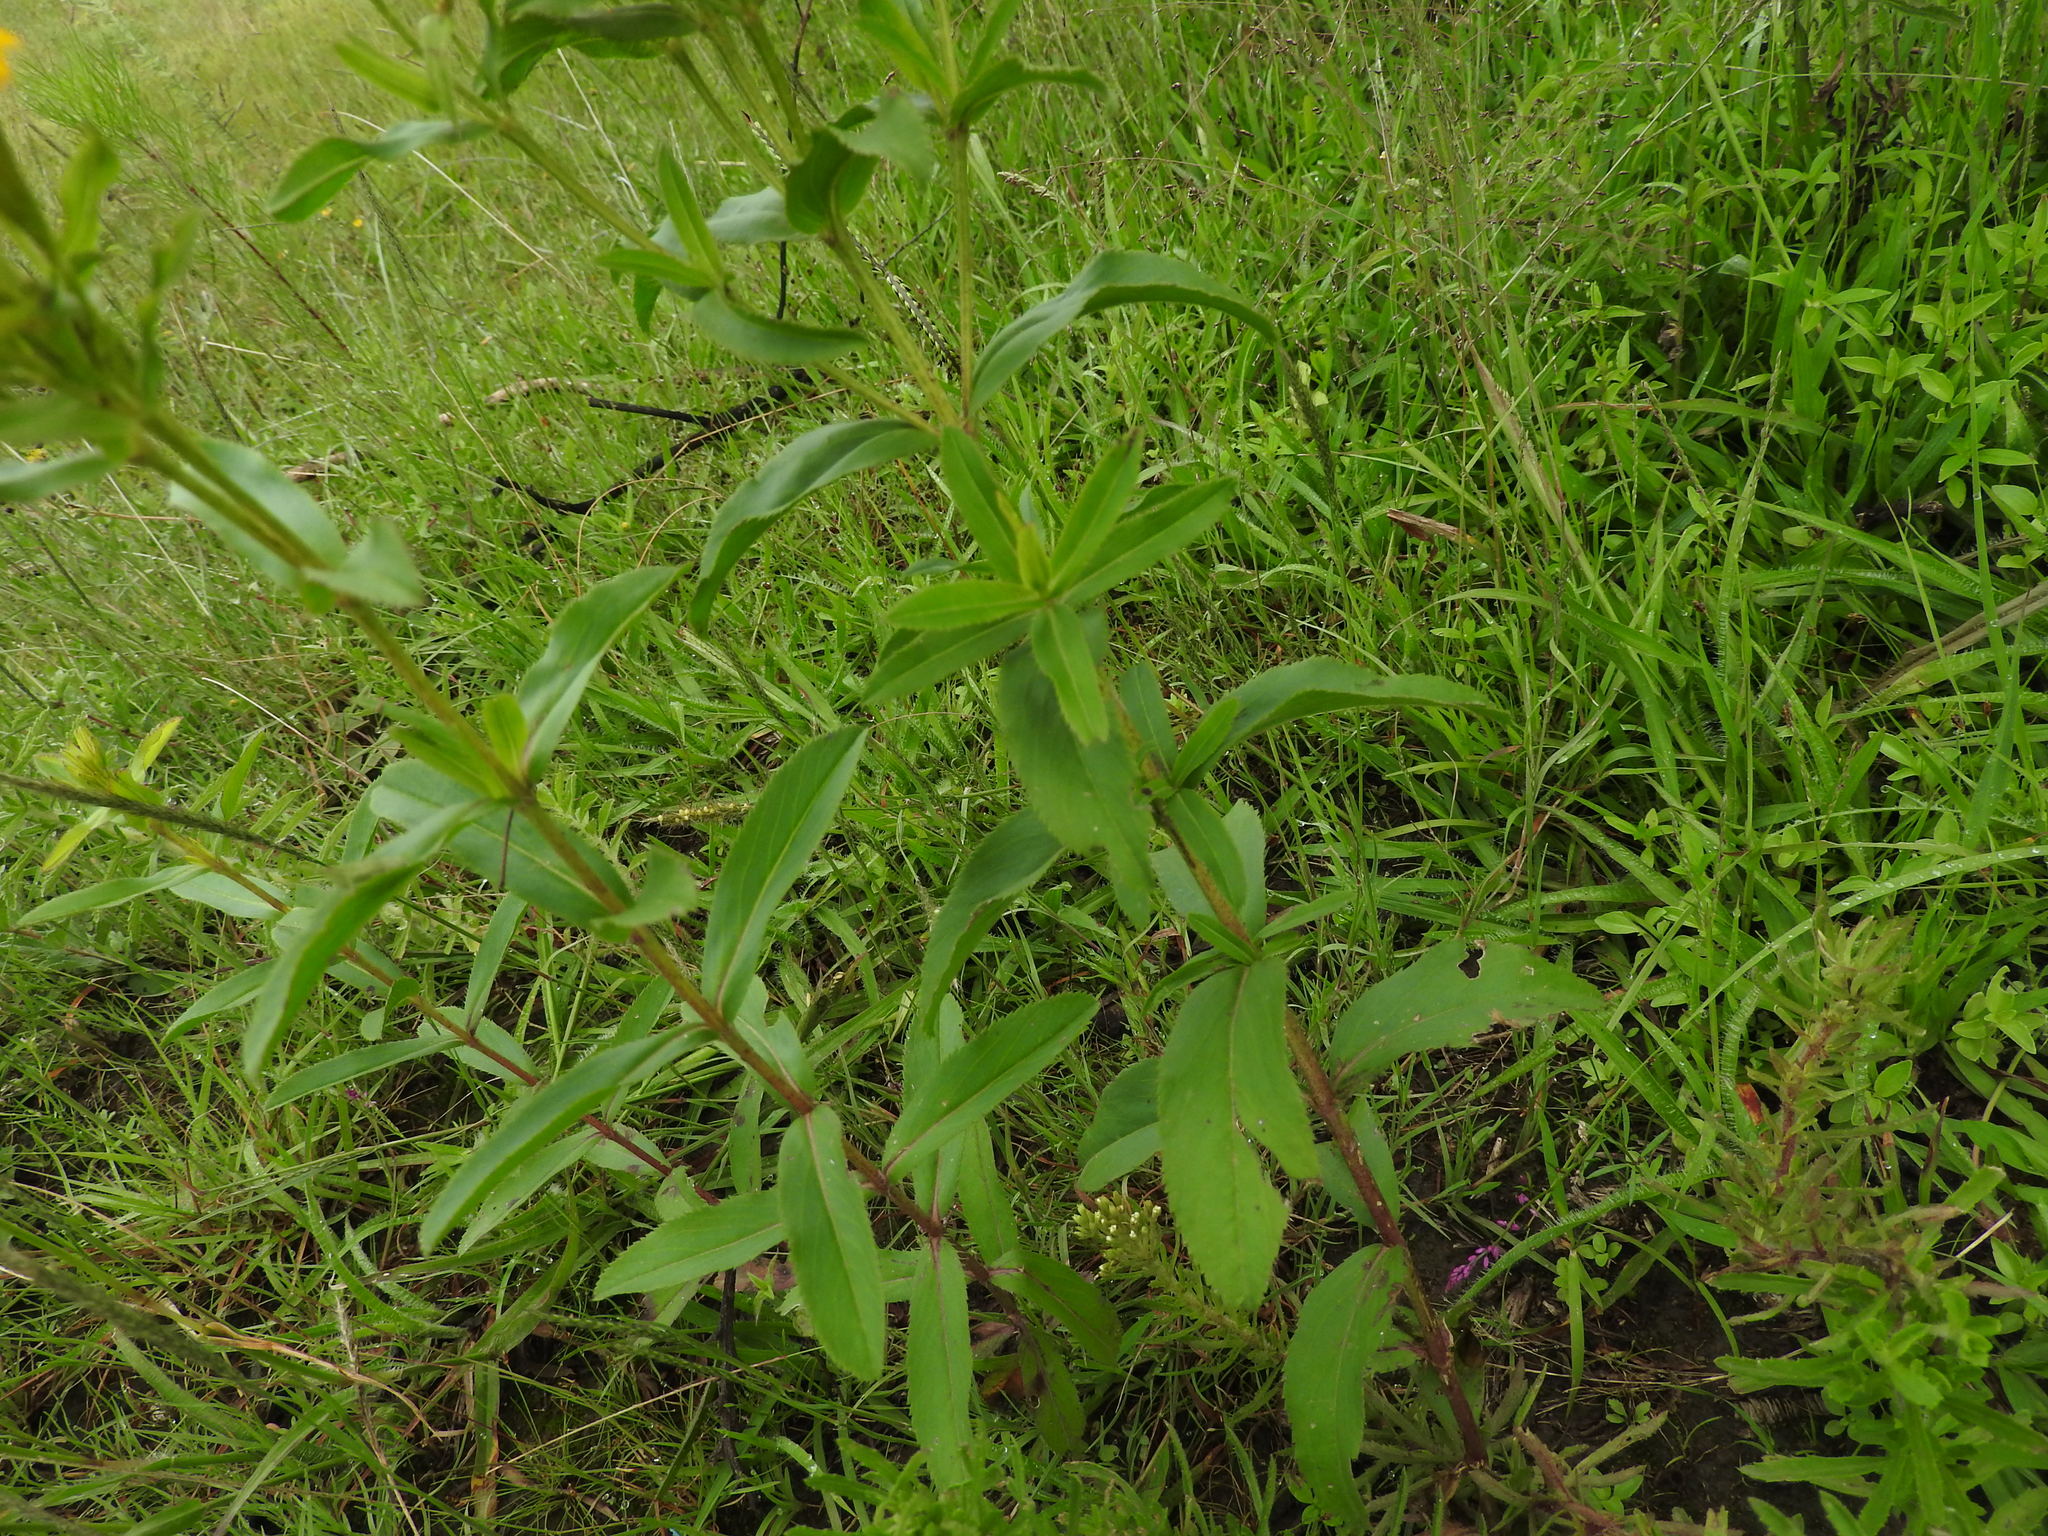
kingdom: Plantae
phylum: Tracheophyta
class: Magnoliopsida
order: Asterales
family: Asteraceae
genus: Tagetes
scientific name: Tagetes lucida
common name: Sweetscented marigold
